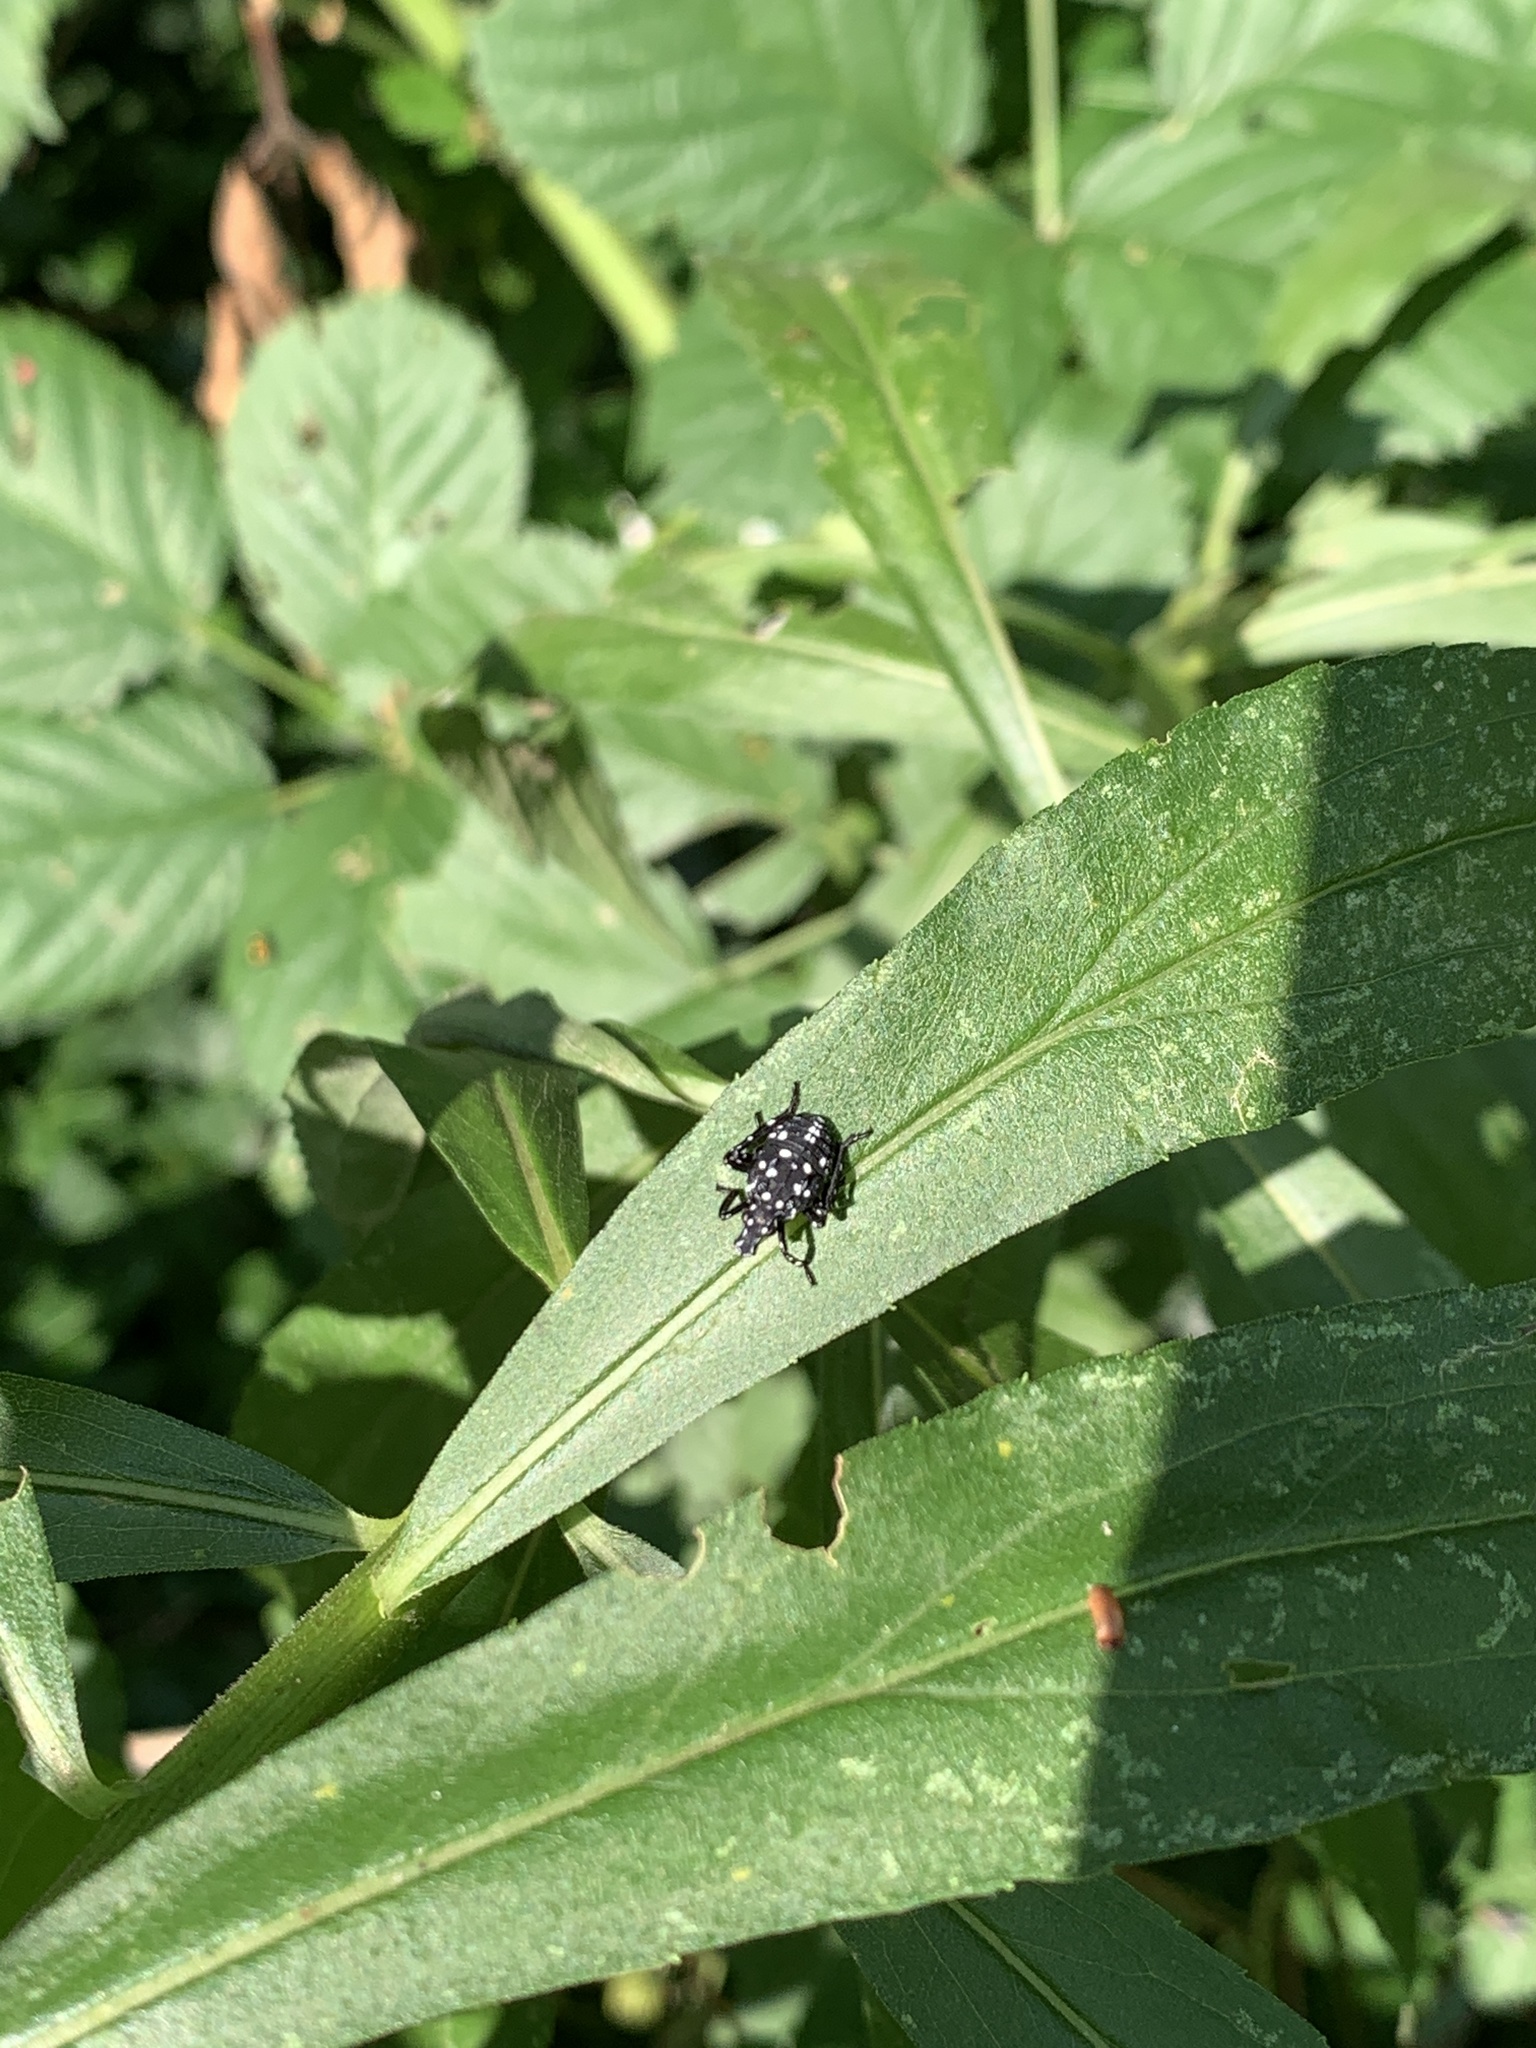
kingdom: Animalia
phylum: Arthropoda
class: Insecta
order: Hemiptera
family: Fulgoridae
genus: Lycorma
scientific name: Lycorma delicatula
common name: Spotted lanternfly
